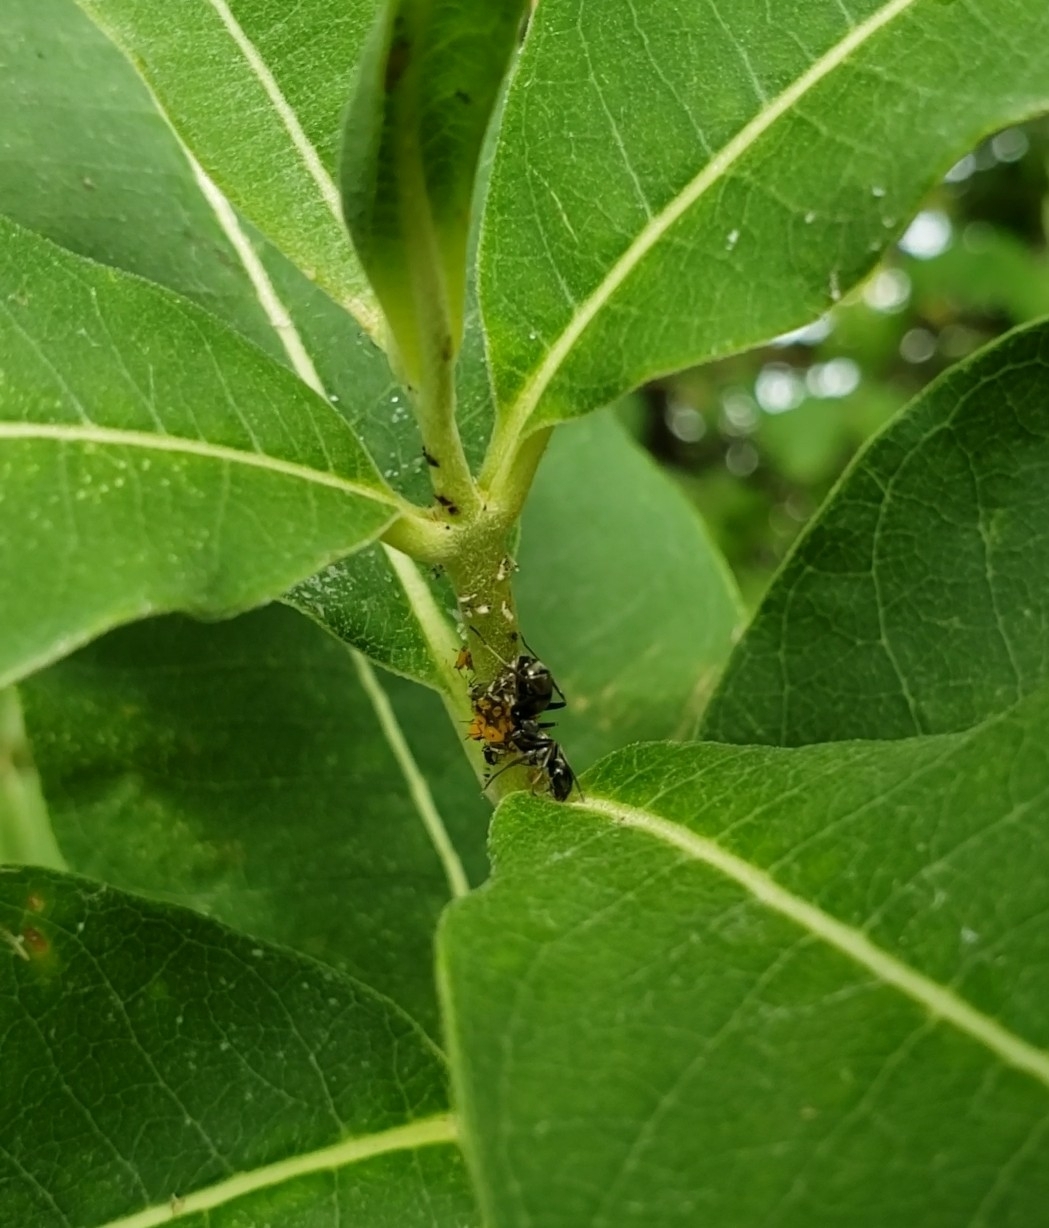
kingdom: Animalia
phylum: Arthropoda
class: Insecta
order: Hymenoptera
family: Formicidae
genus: Formica
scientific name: Formica subsericea
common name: Silky field ant
